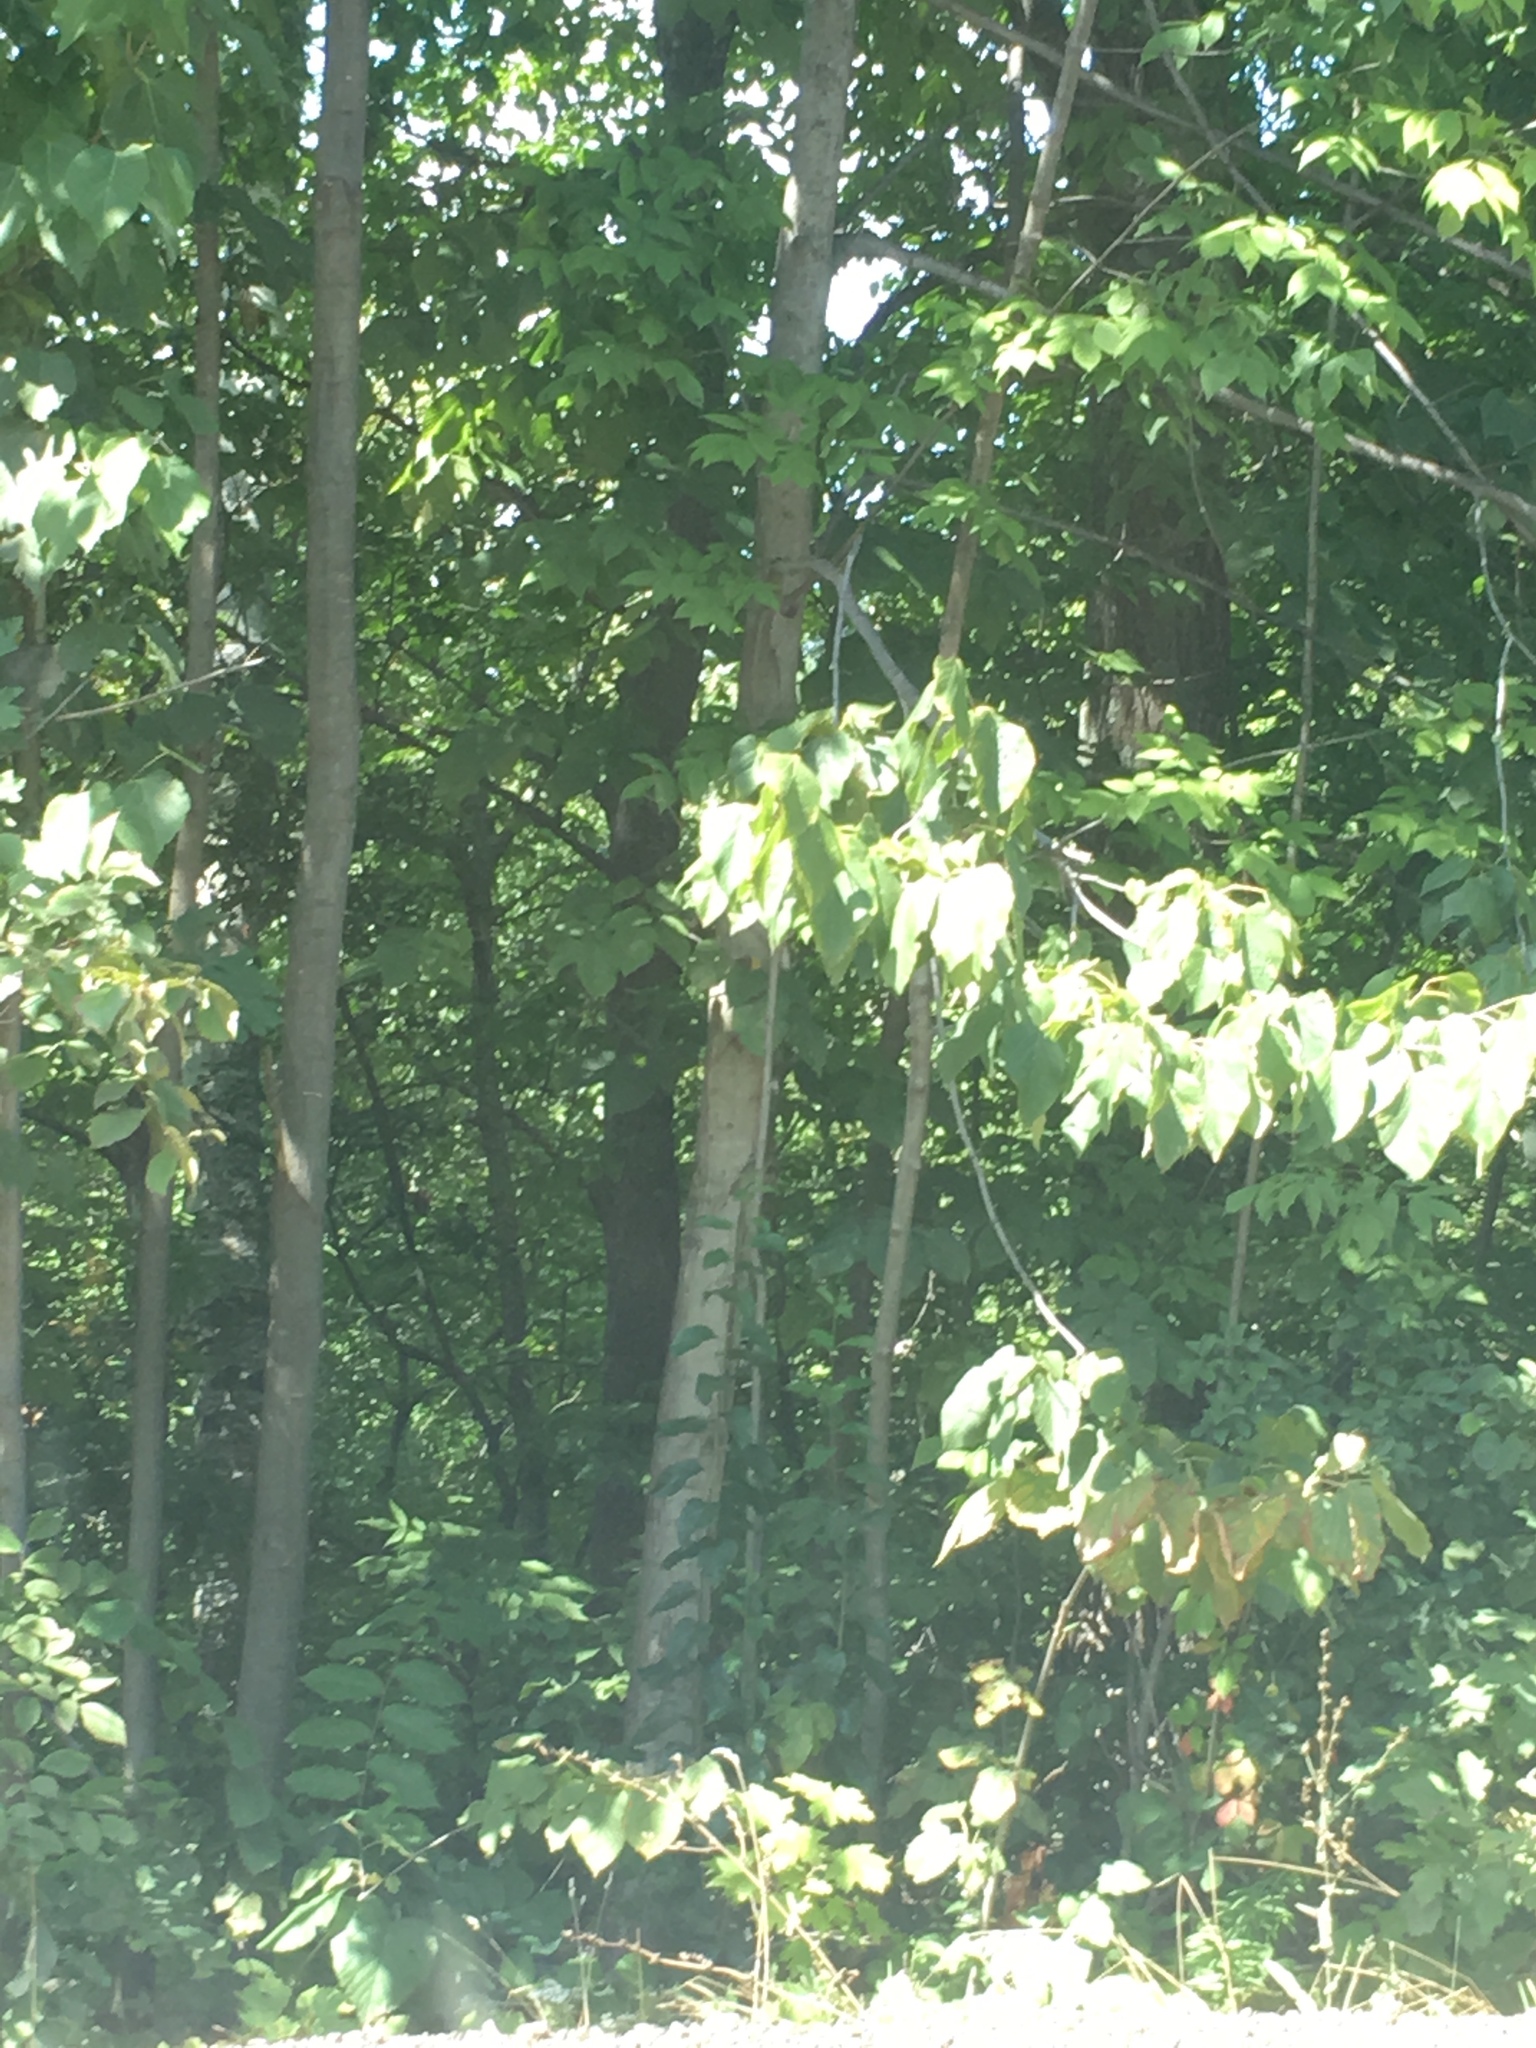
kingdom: Plantae
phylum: Tracheophyta
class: Magnoliopsida
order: Malvales
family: Malvaceae
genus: Tilia
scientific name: Tilia americana
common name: Basswood
